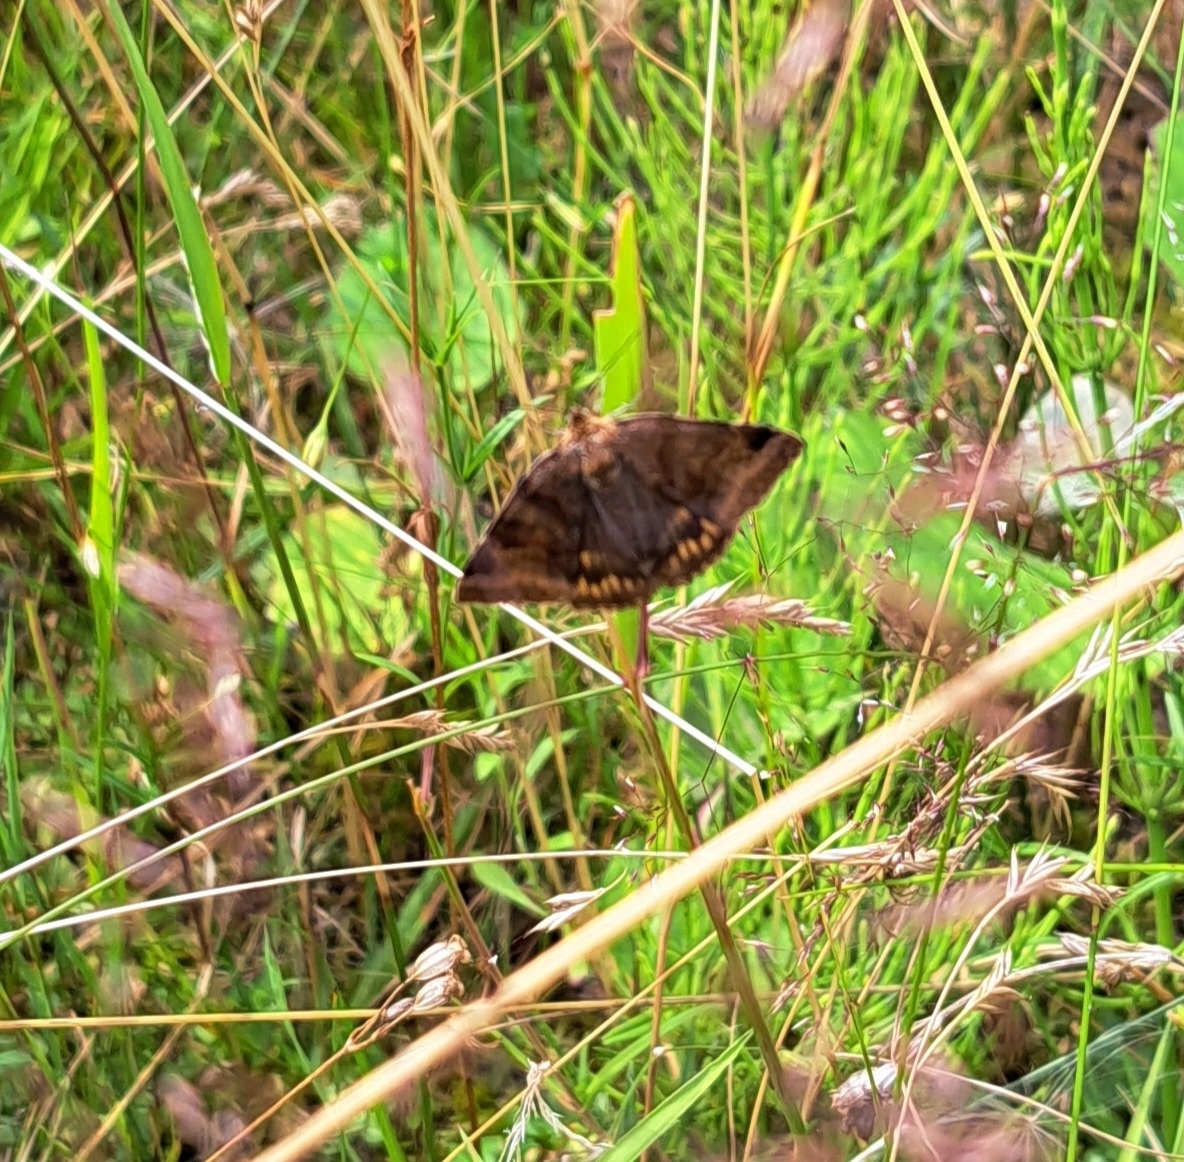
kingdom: Animalia
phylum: Arthropoda
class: Insecta
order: Lepidoptera
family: Erebidae
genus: Euclidia
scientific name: Euclidia glyphica
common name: Burnet companion
